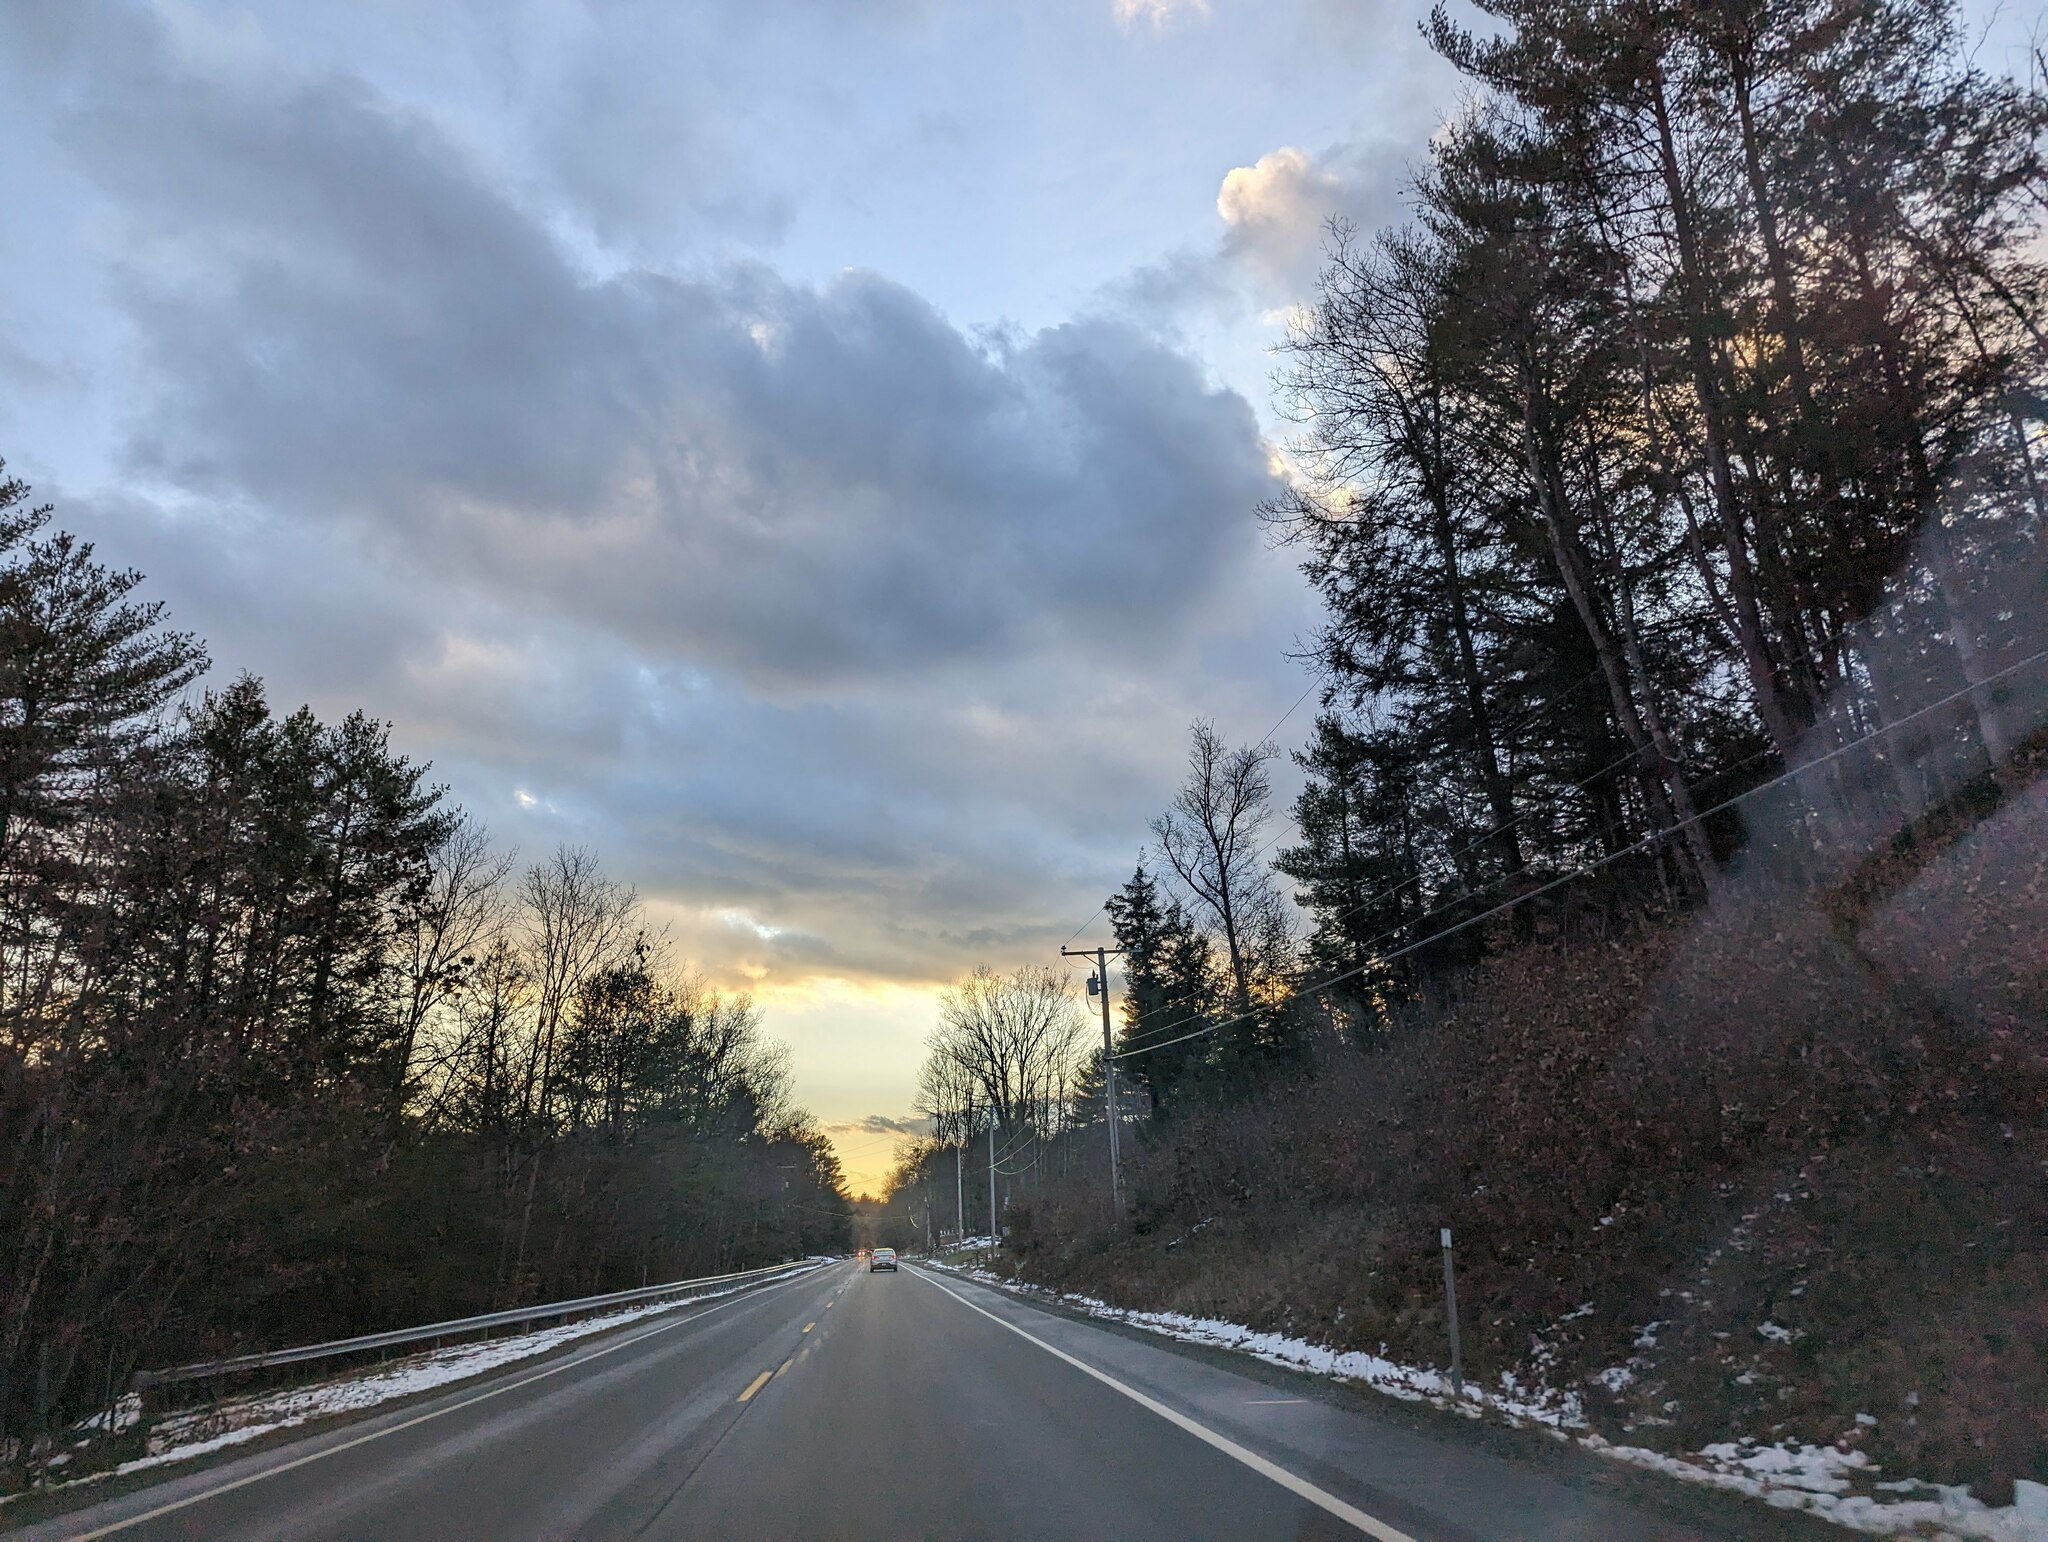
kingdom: Plantae
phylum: Tracheophyta
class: Pinopsida
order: Pinales
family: Pinaceae
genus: Pinus
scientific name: Pinus strobus
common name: Weymouth pine
